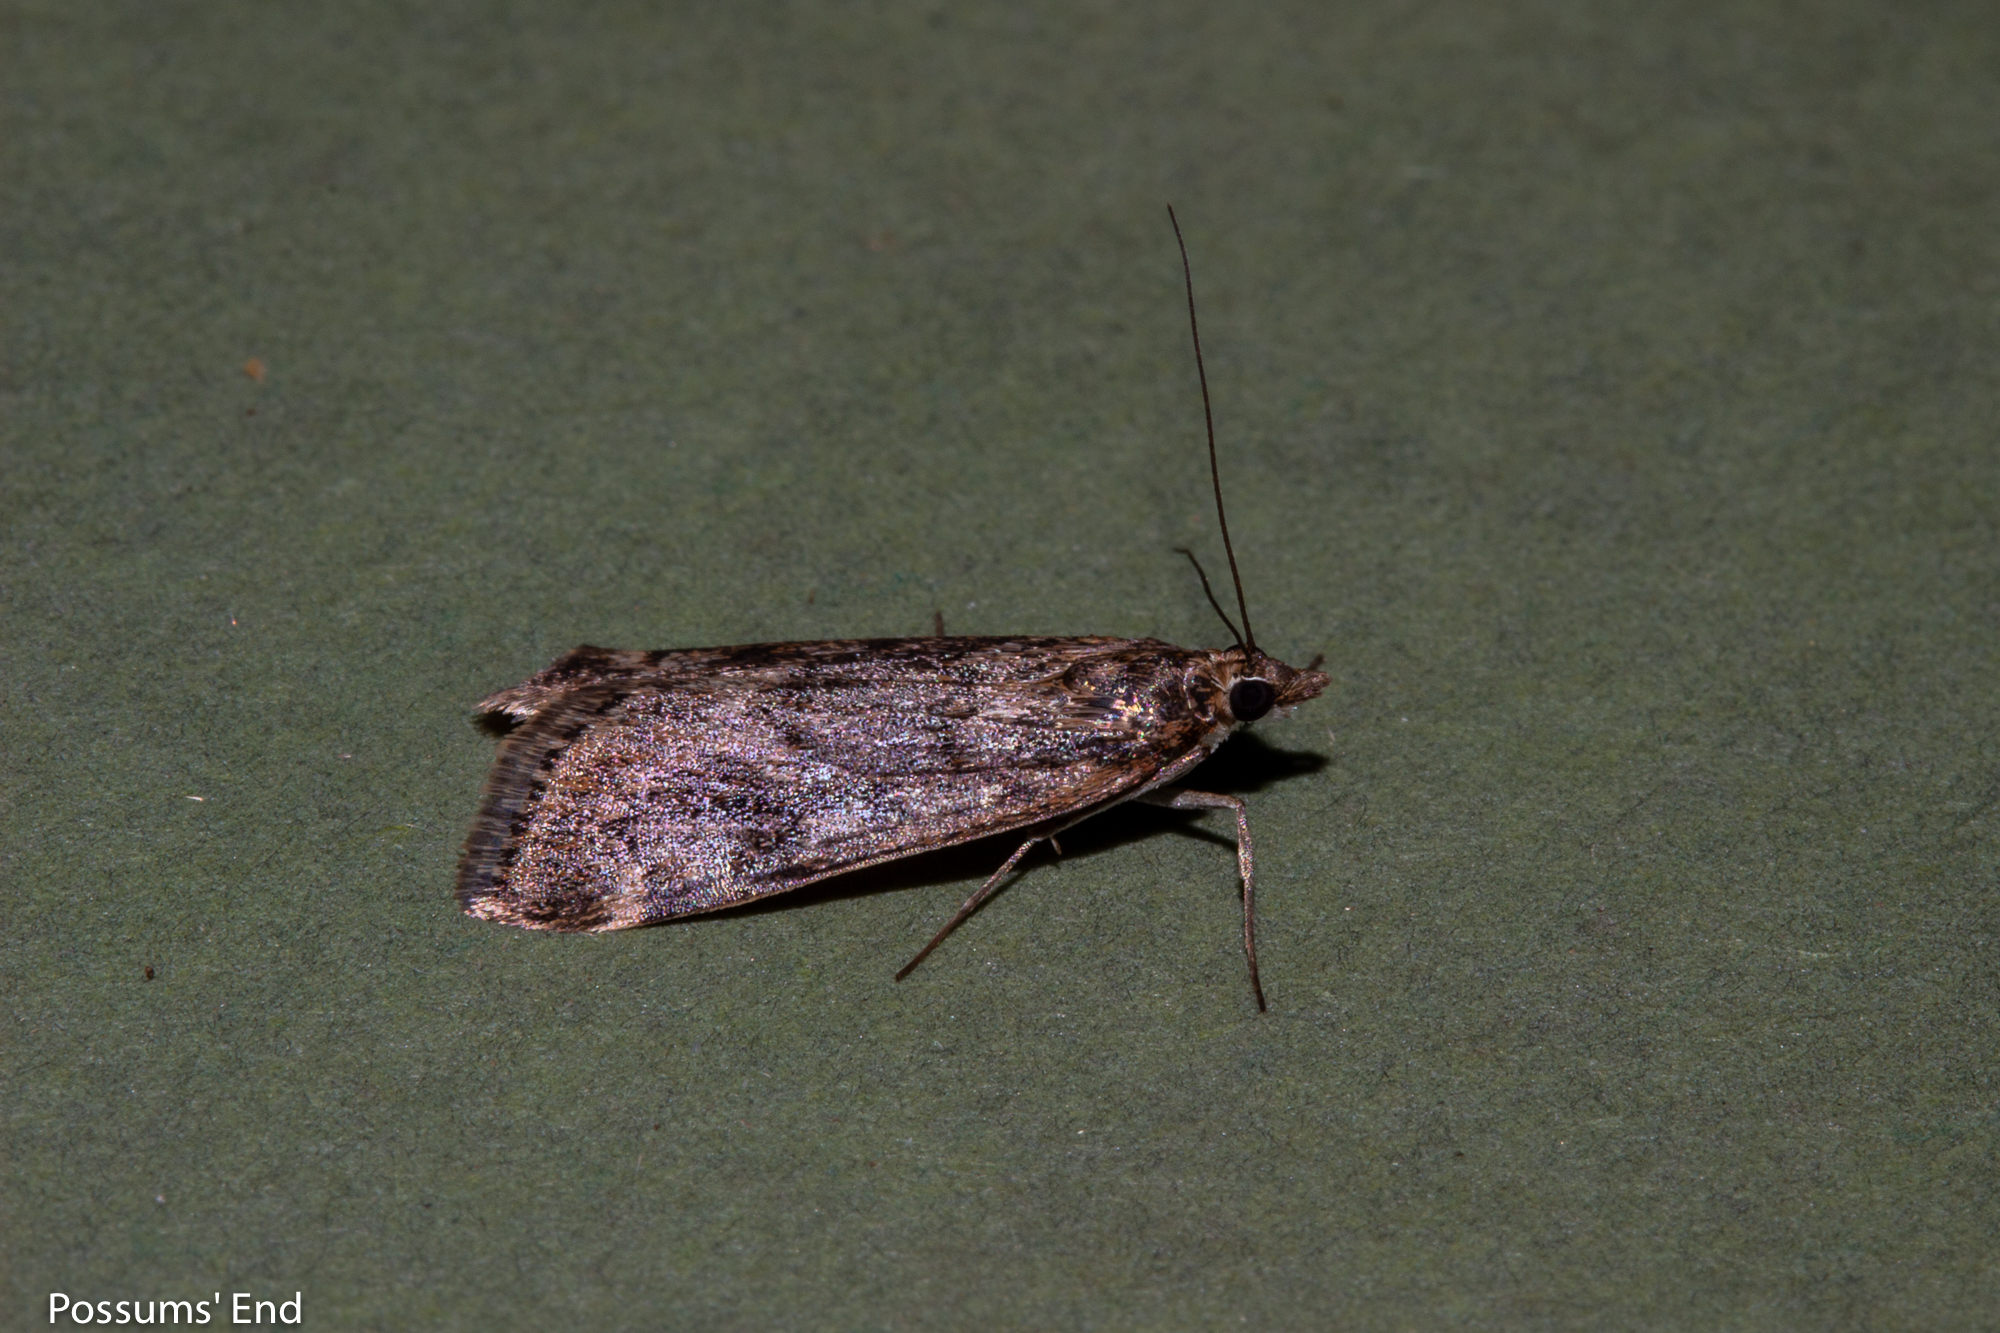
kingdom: Animalia
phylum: Arthropoda
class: Insecta
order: Lepidoptera
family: Crambidae
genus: Achyra
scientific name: Achyra affinitalis
